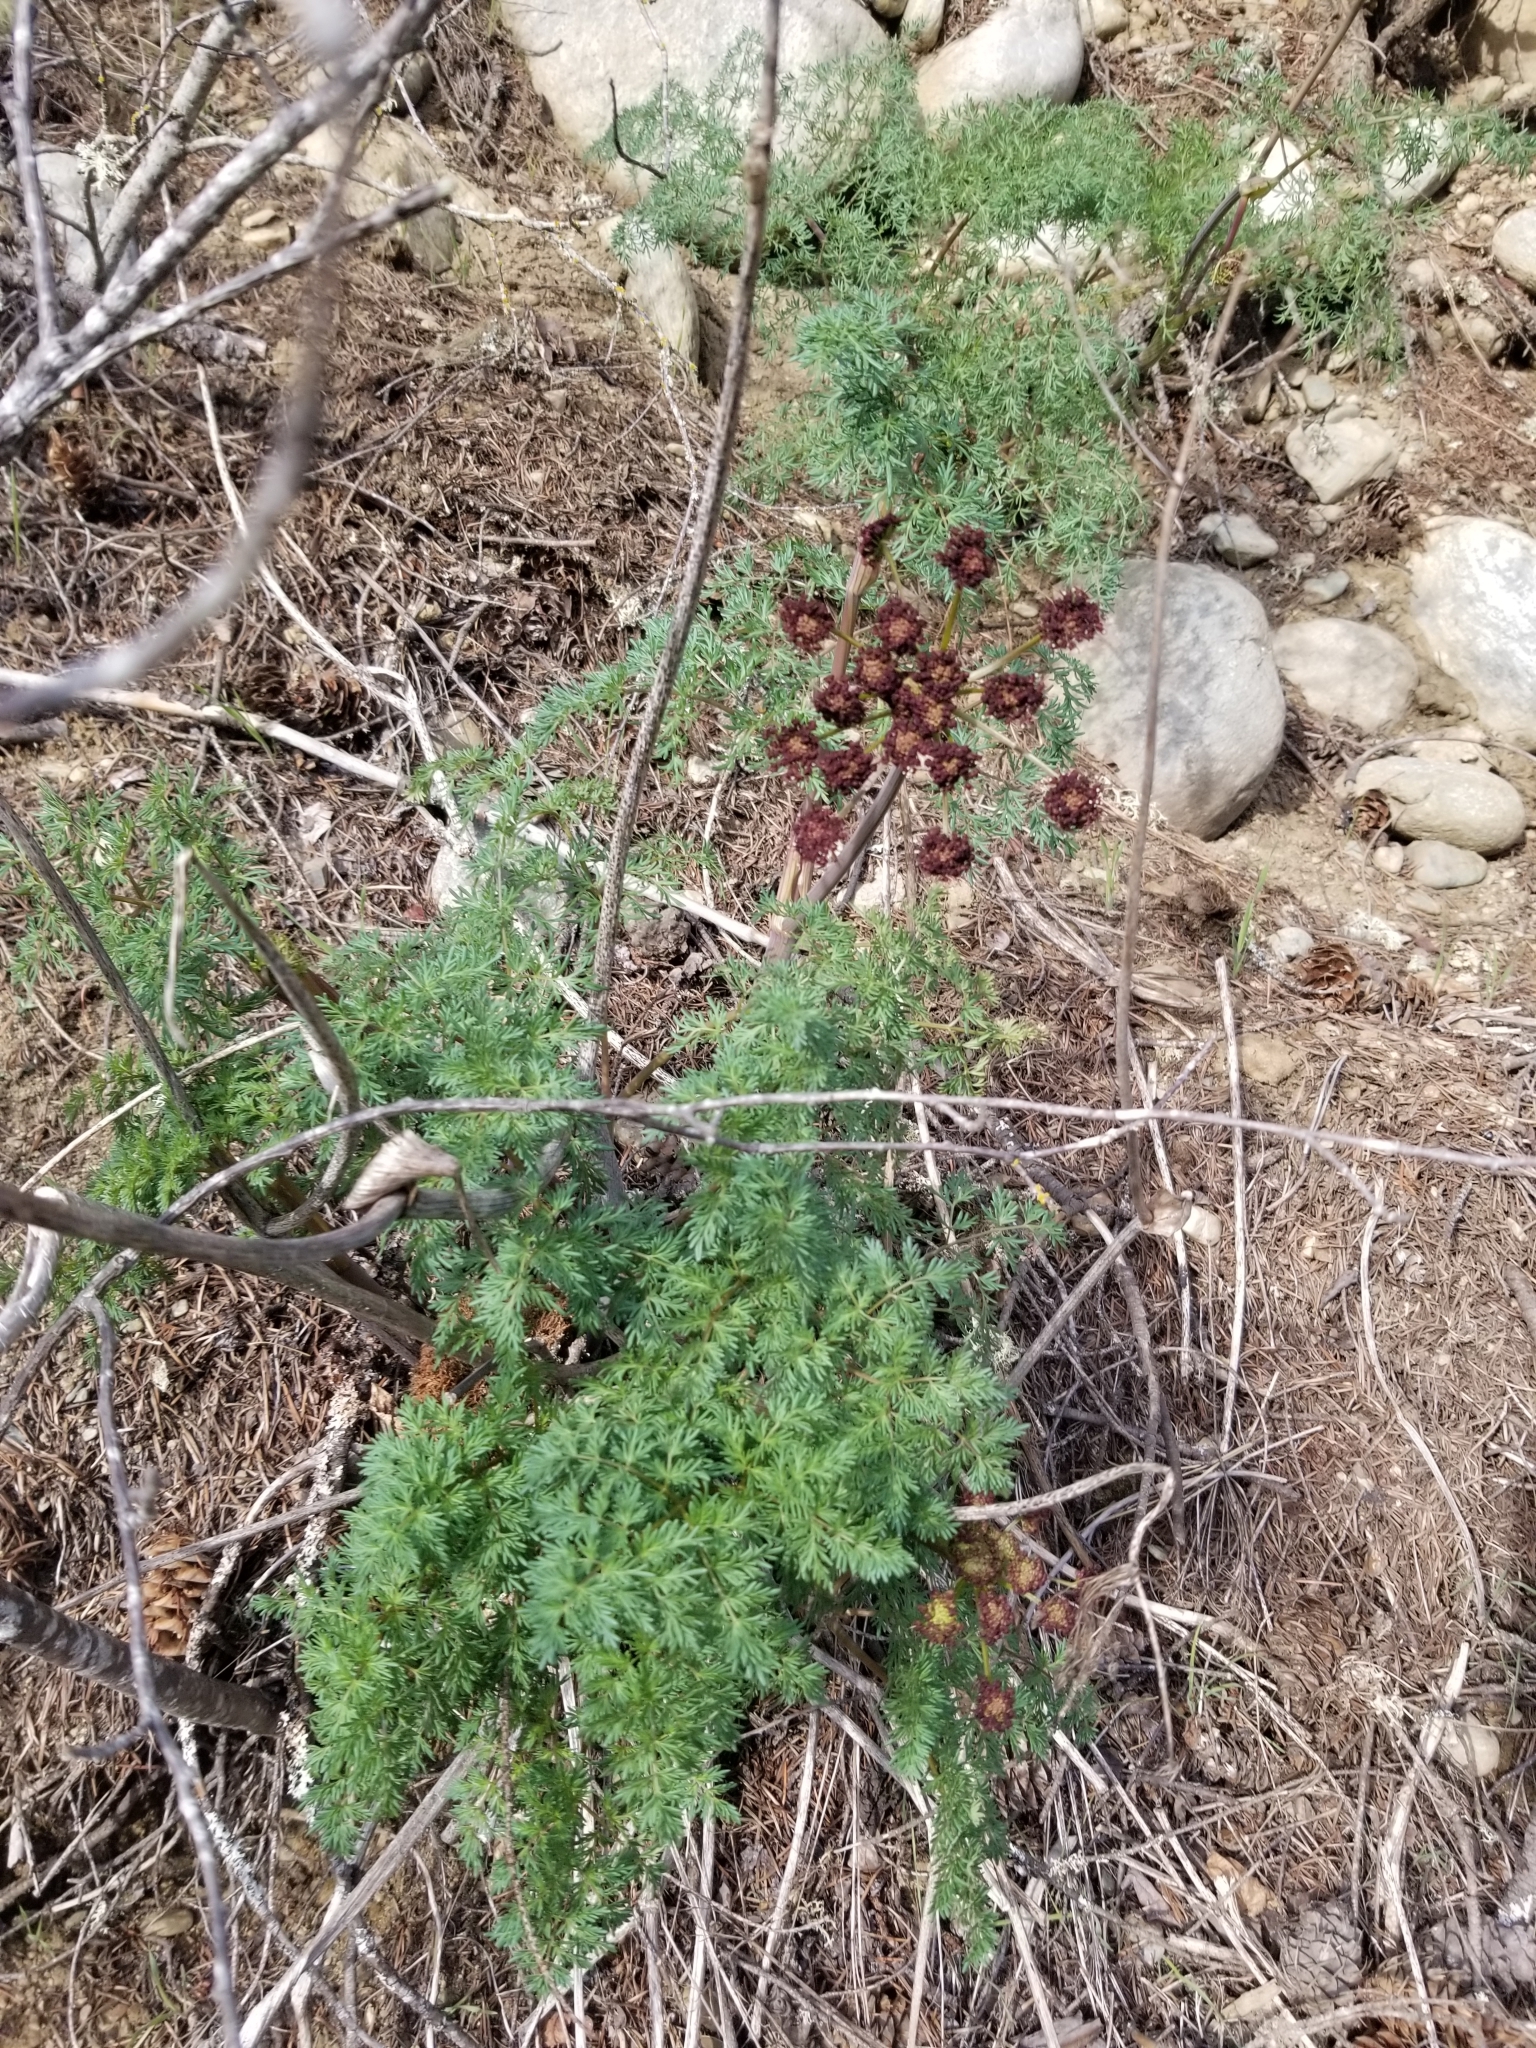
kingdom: Plantae
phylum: Tracheophyta
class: Magnoliopsida
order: Apiales
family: Apiaceae
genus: Lomatium
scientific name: Lomatium multifidum
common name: Carrot-leaved biscuitroot
